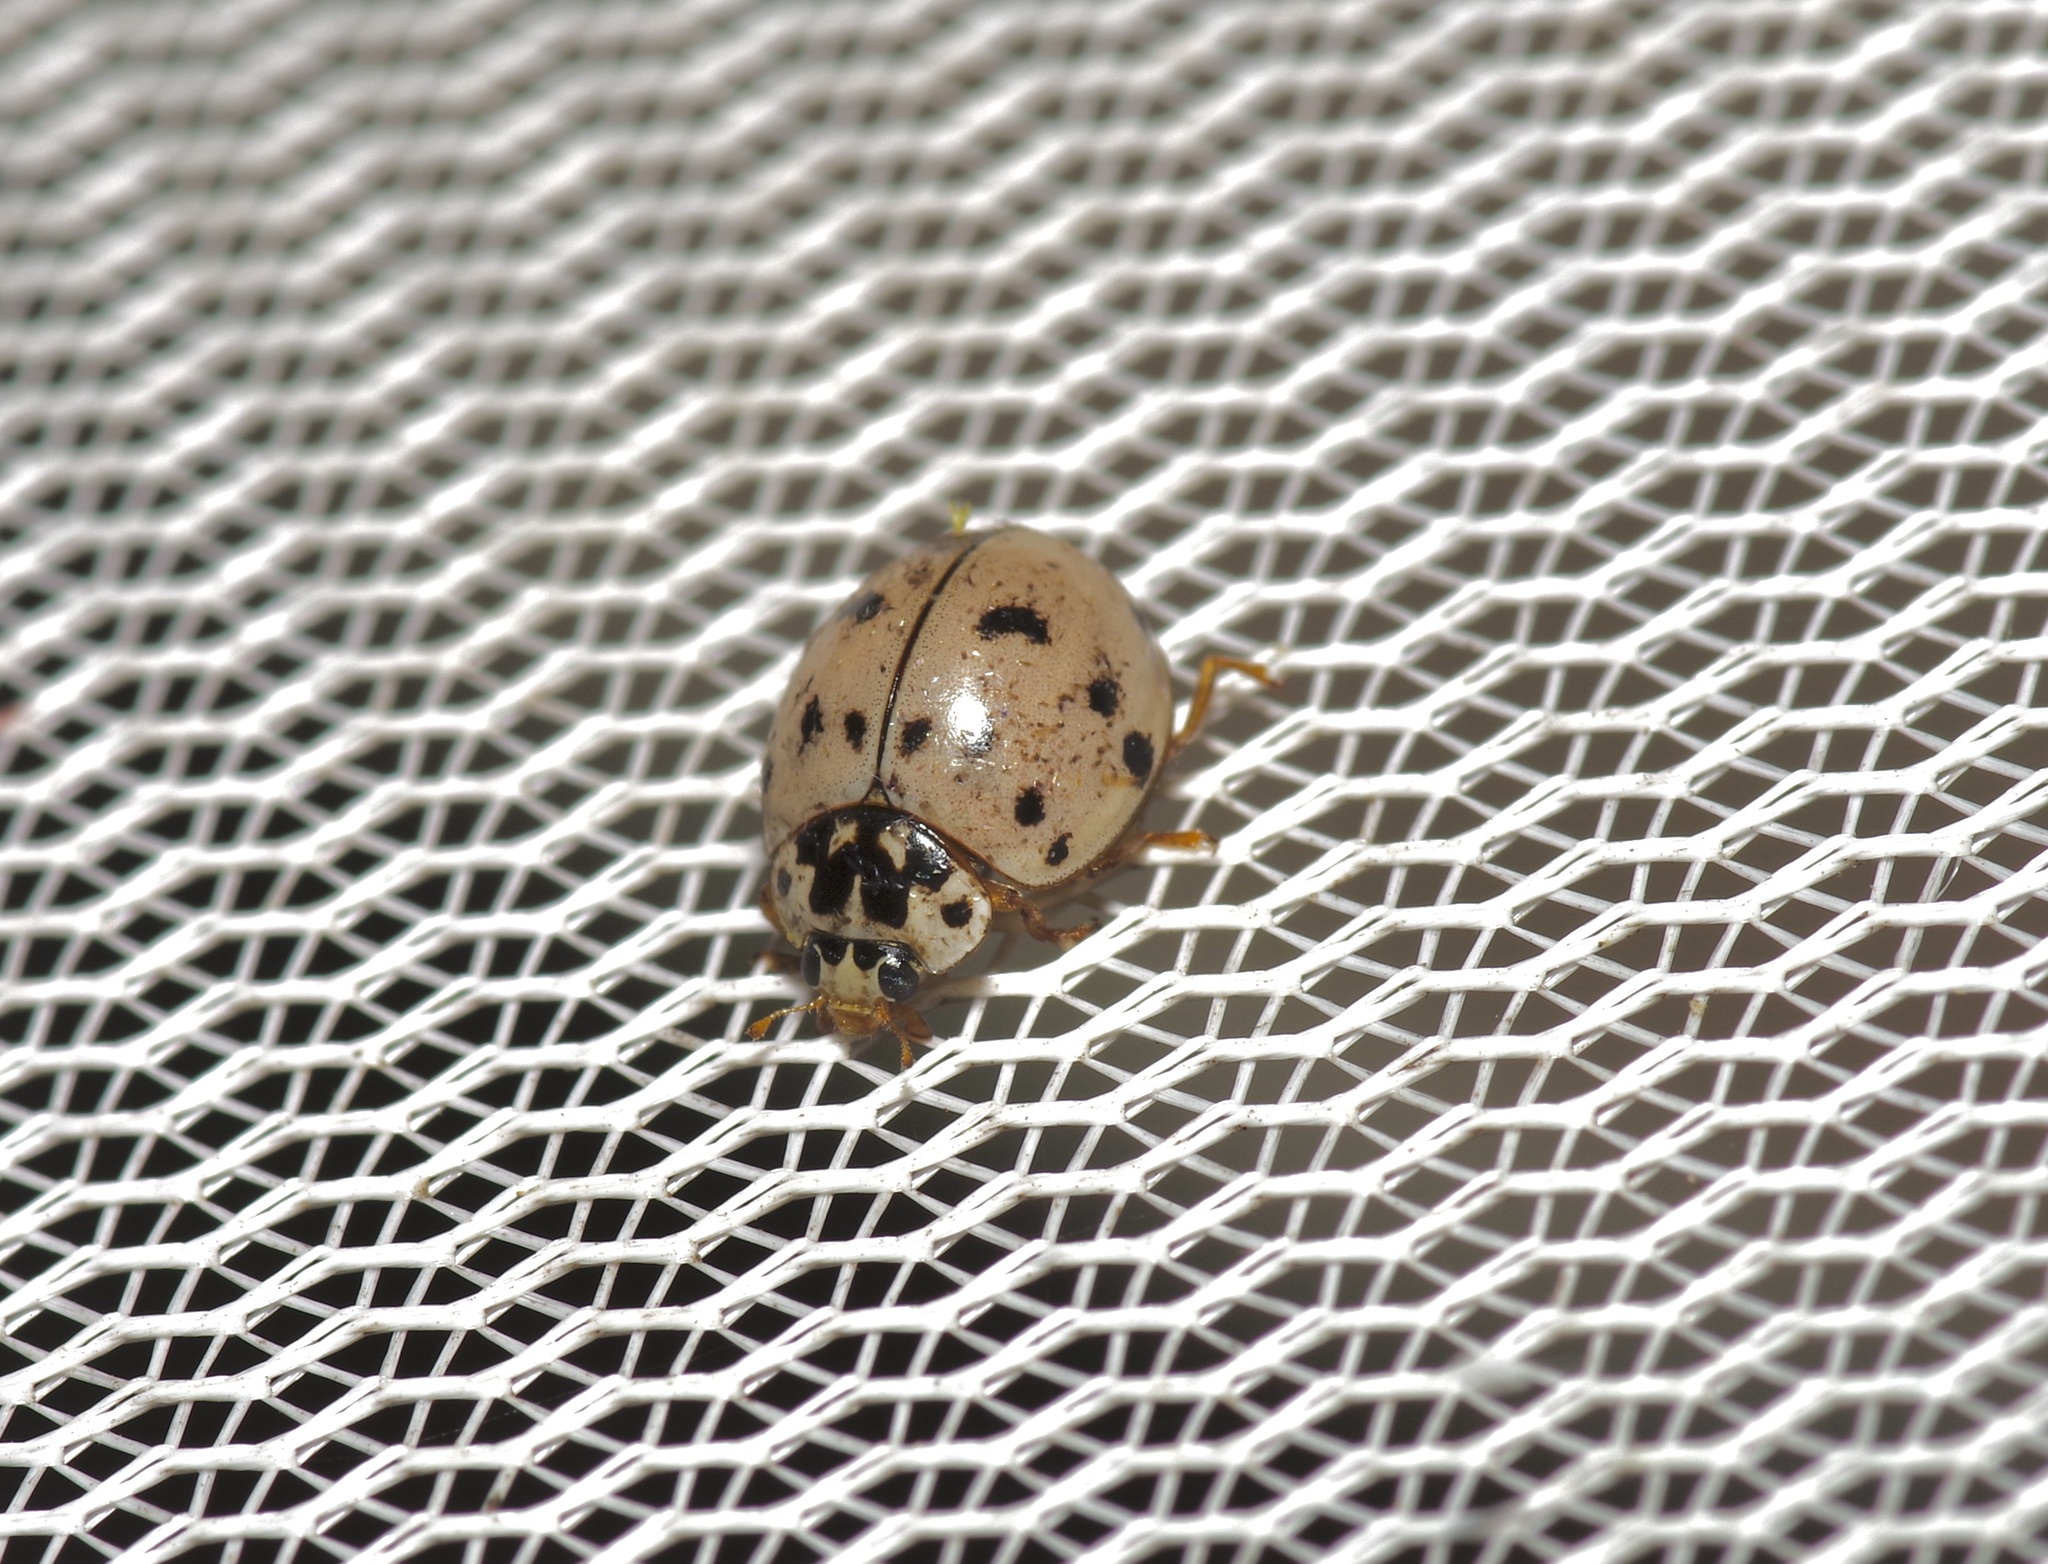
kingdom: Animalia
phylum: Arthropoda
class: Insecta
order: Coleoptera
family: Coccinellidae
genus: Olla
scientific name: Olla v-nigrum
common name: Ashy gray lady beetle
